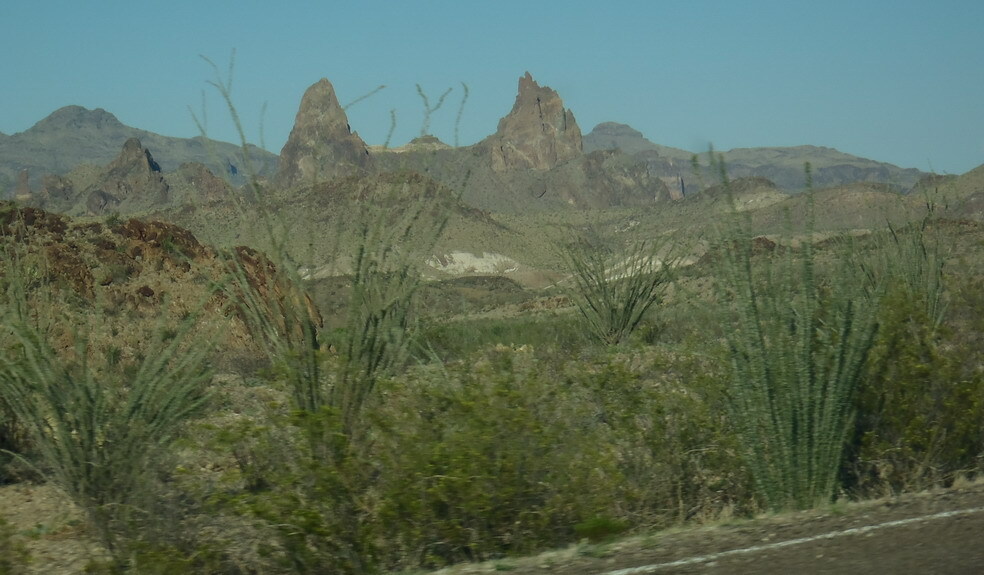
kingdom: Plantae
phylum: Tracheophyta
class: Magnoliopsida
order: Ericales
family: Fouquieriaceae
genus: Fouquieria
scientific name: Fouquieria splendens
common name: Vine-cactus
